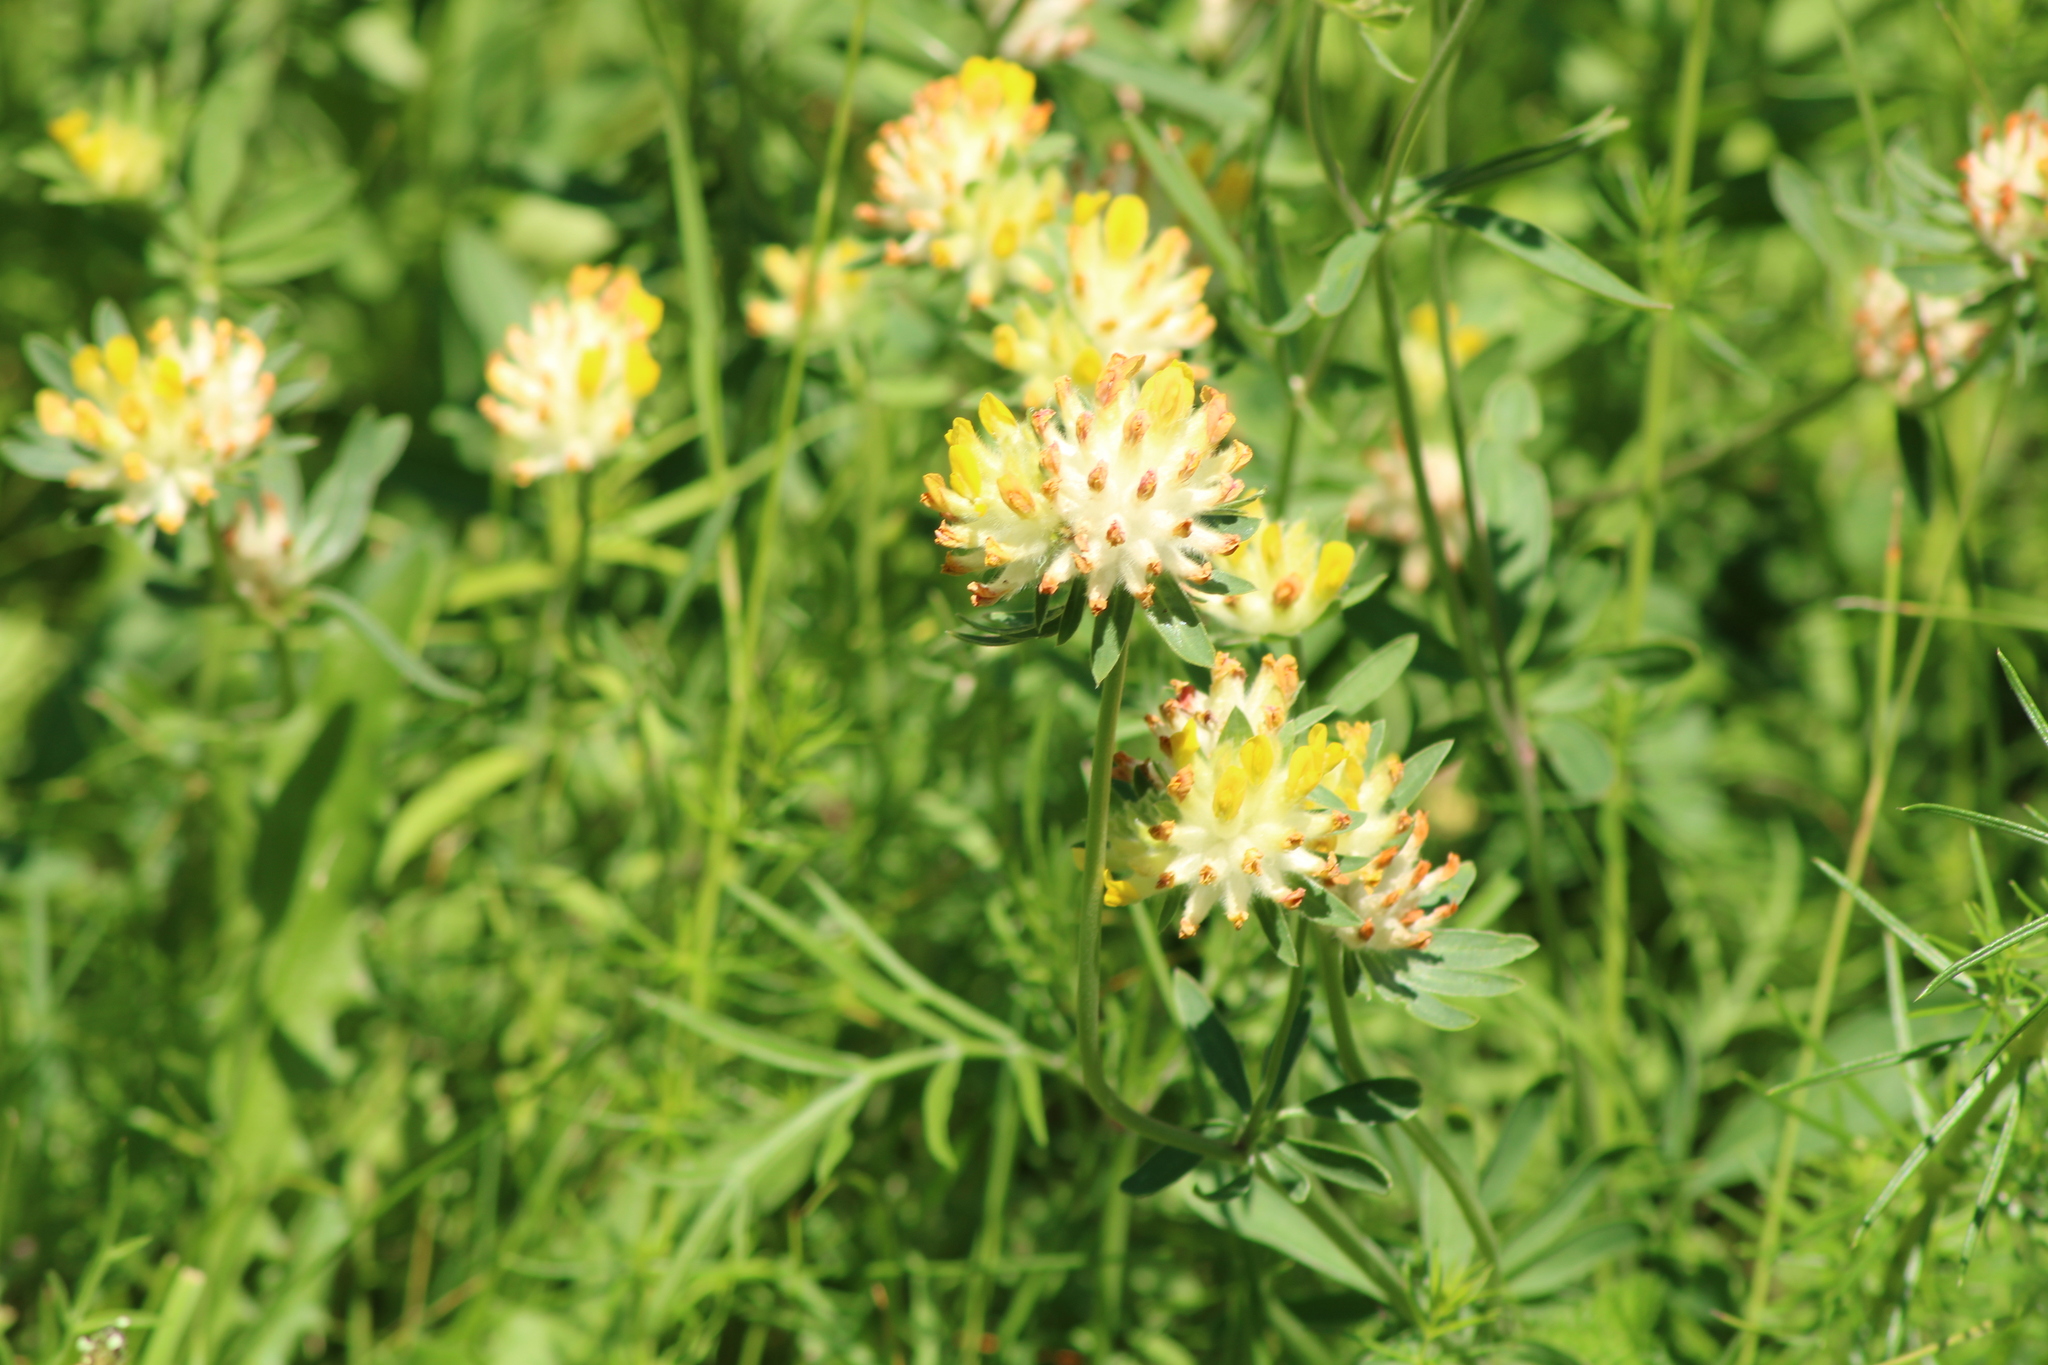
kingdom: Plantae
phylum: Tracheophyta
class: Magnoliopsida
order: Fabales
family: Fabaceae
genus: Anthyllis
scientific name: Anthyllis vulneraria
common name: Kidney vetch
